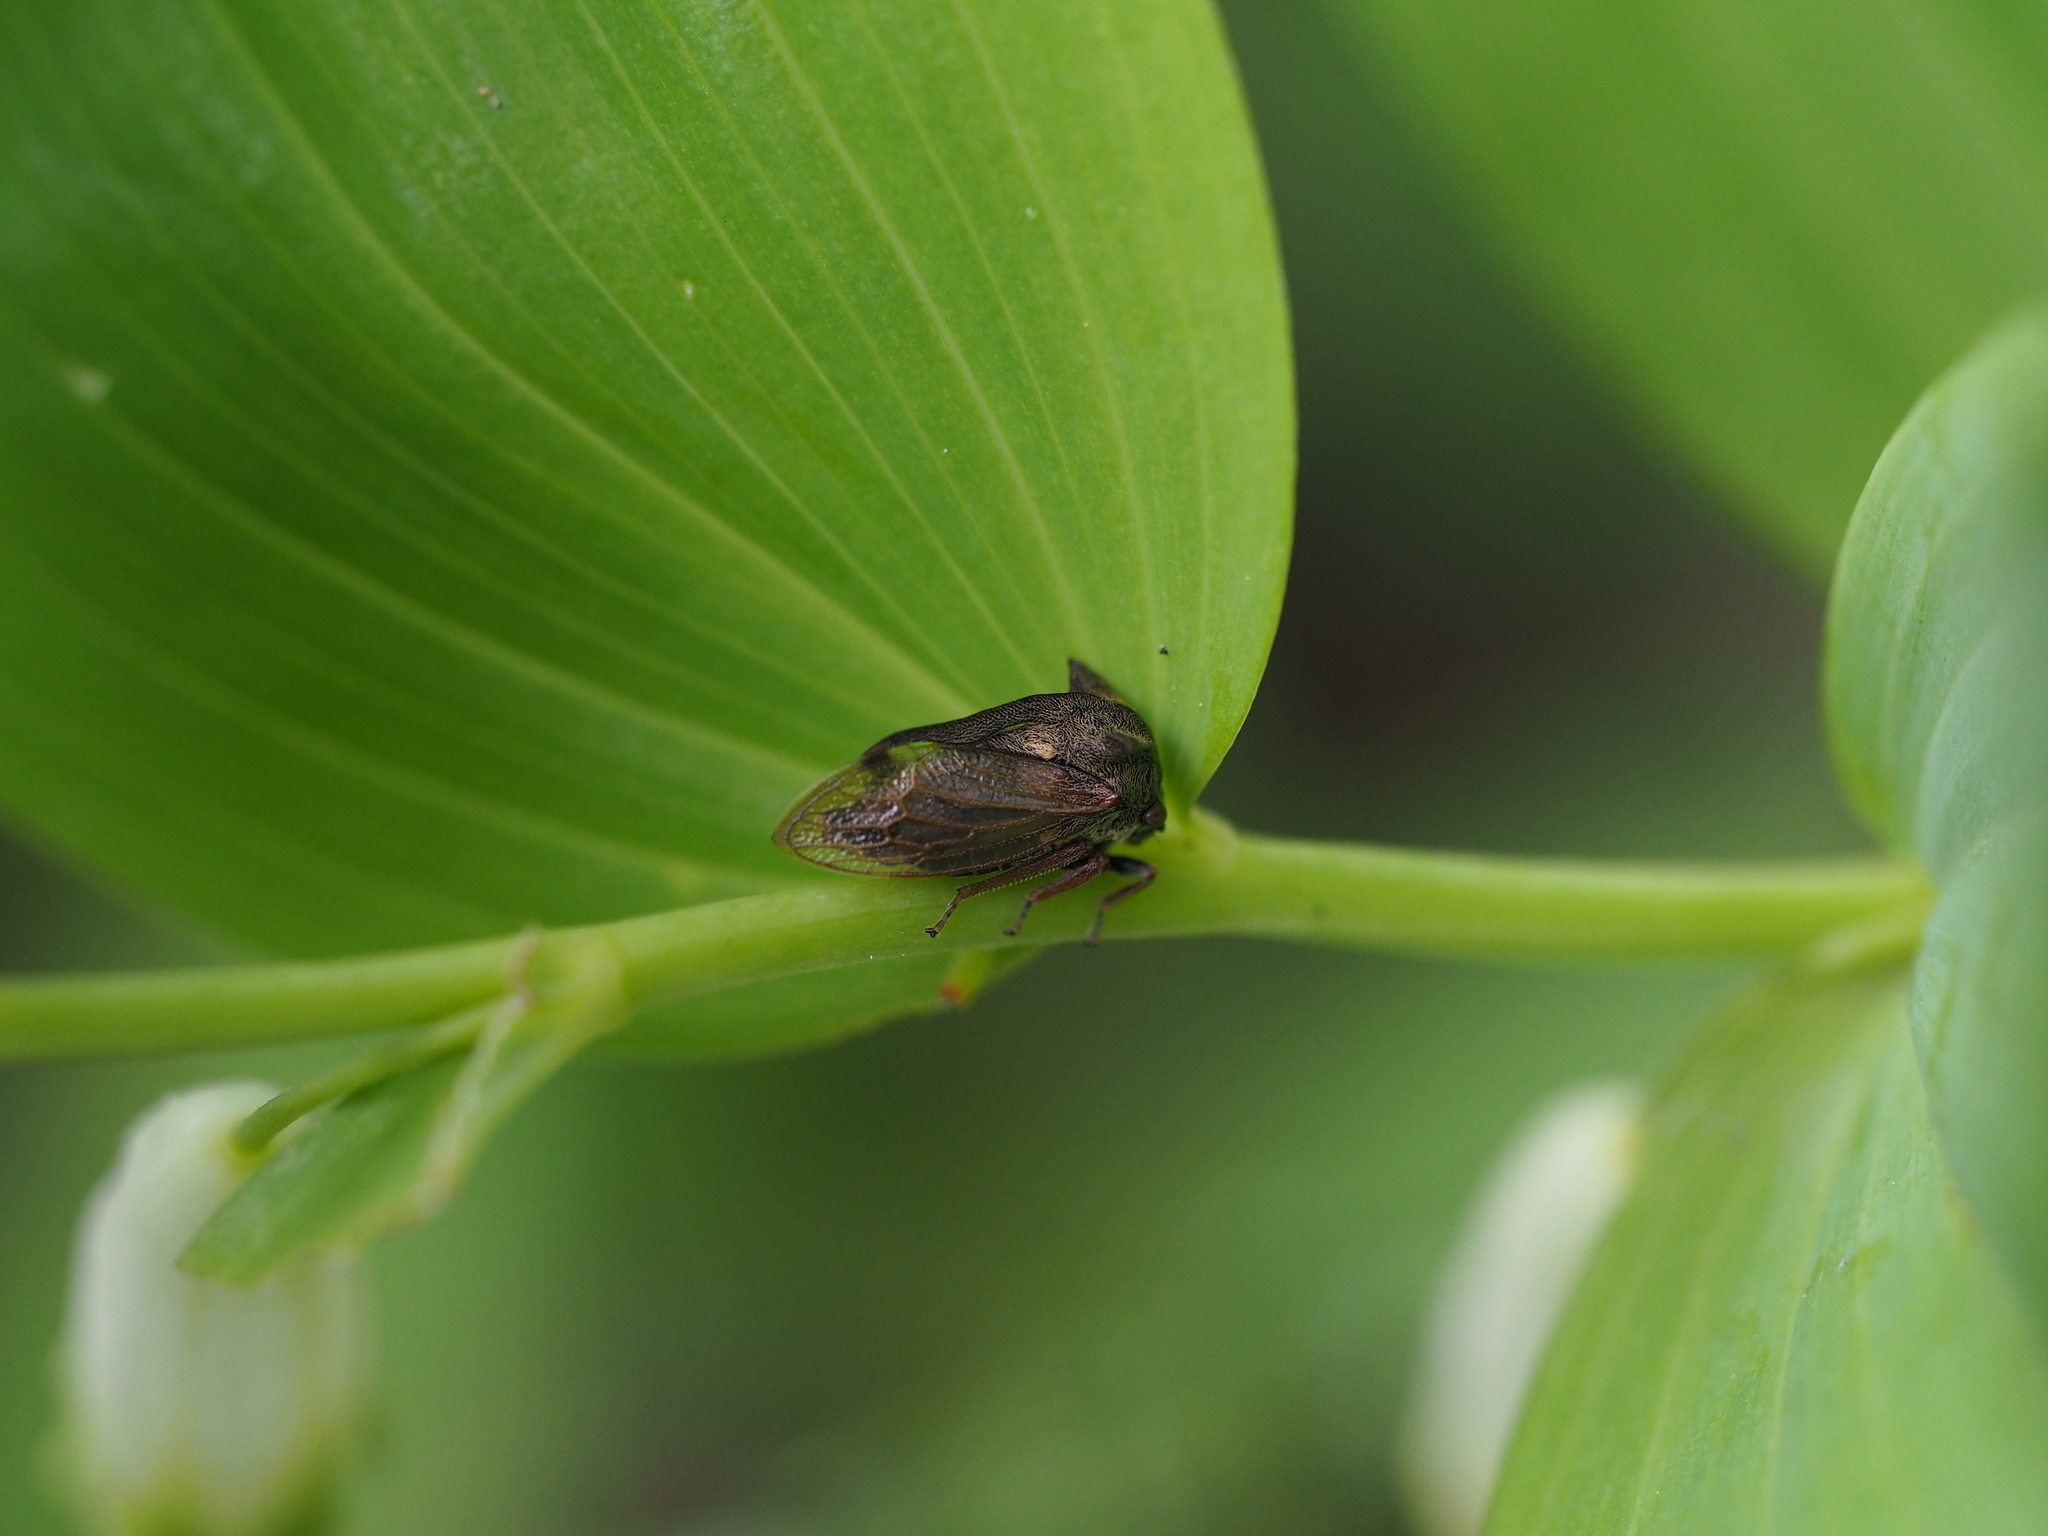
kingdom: Animalia
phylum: Arthropoda
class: Insecta
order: Hemiptera
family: Membracidae
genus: Centrotus
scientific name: Centrotus cornuta
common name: Treehopper
